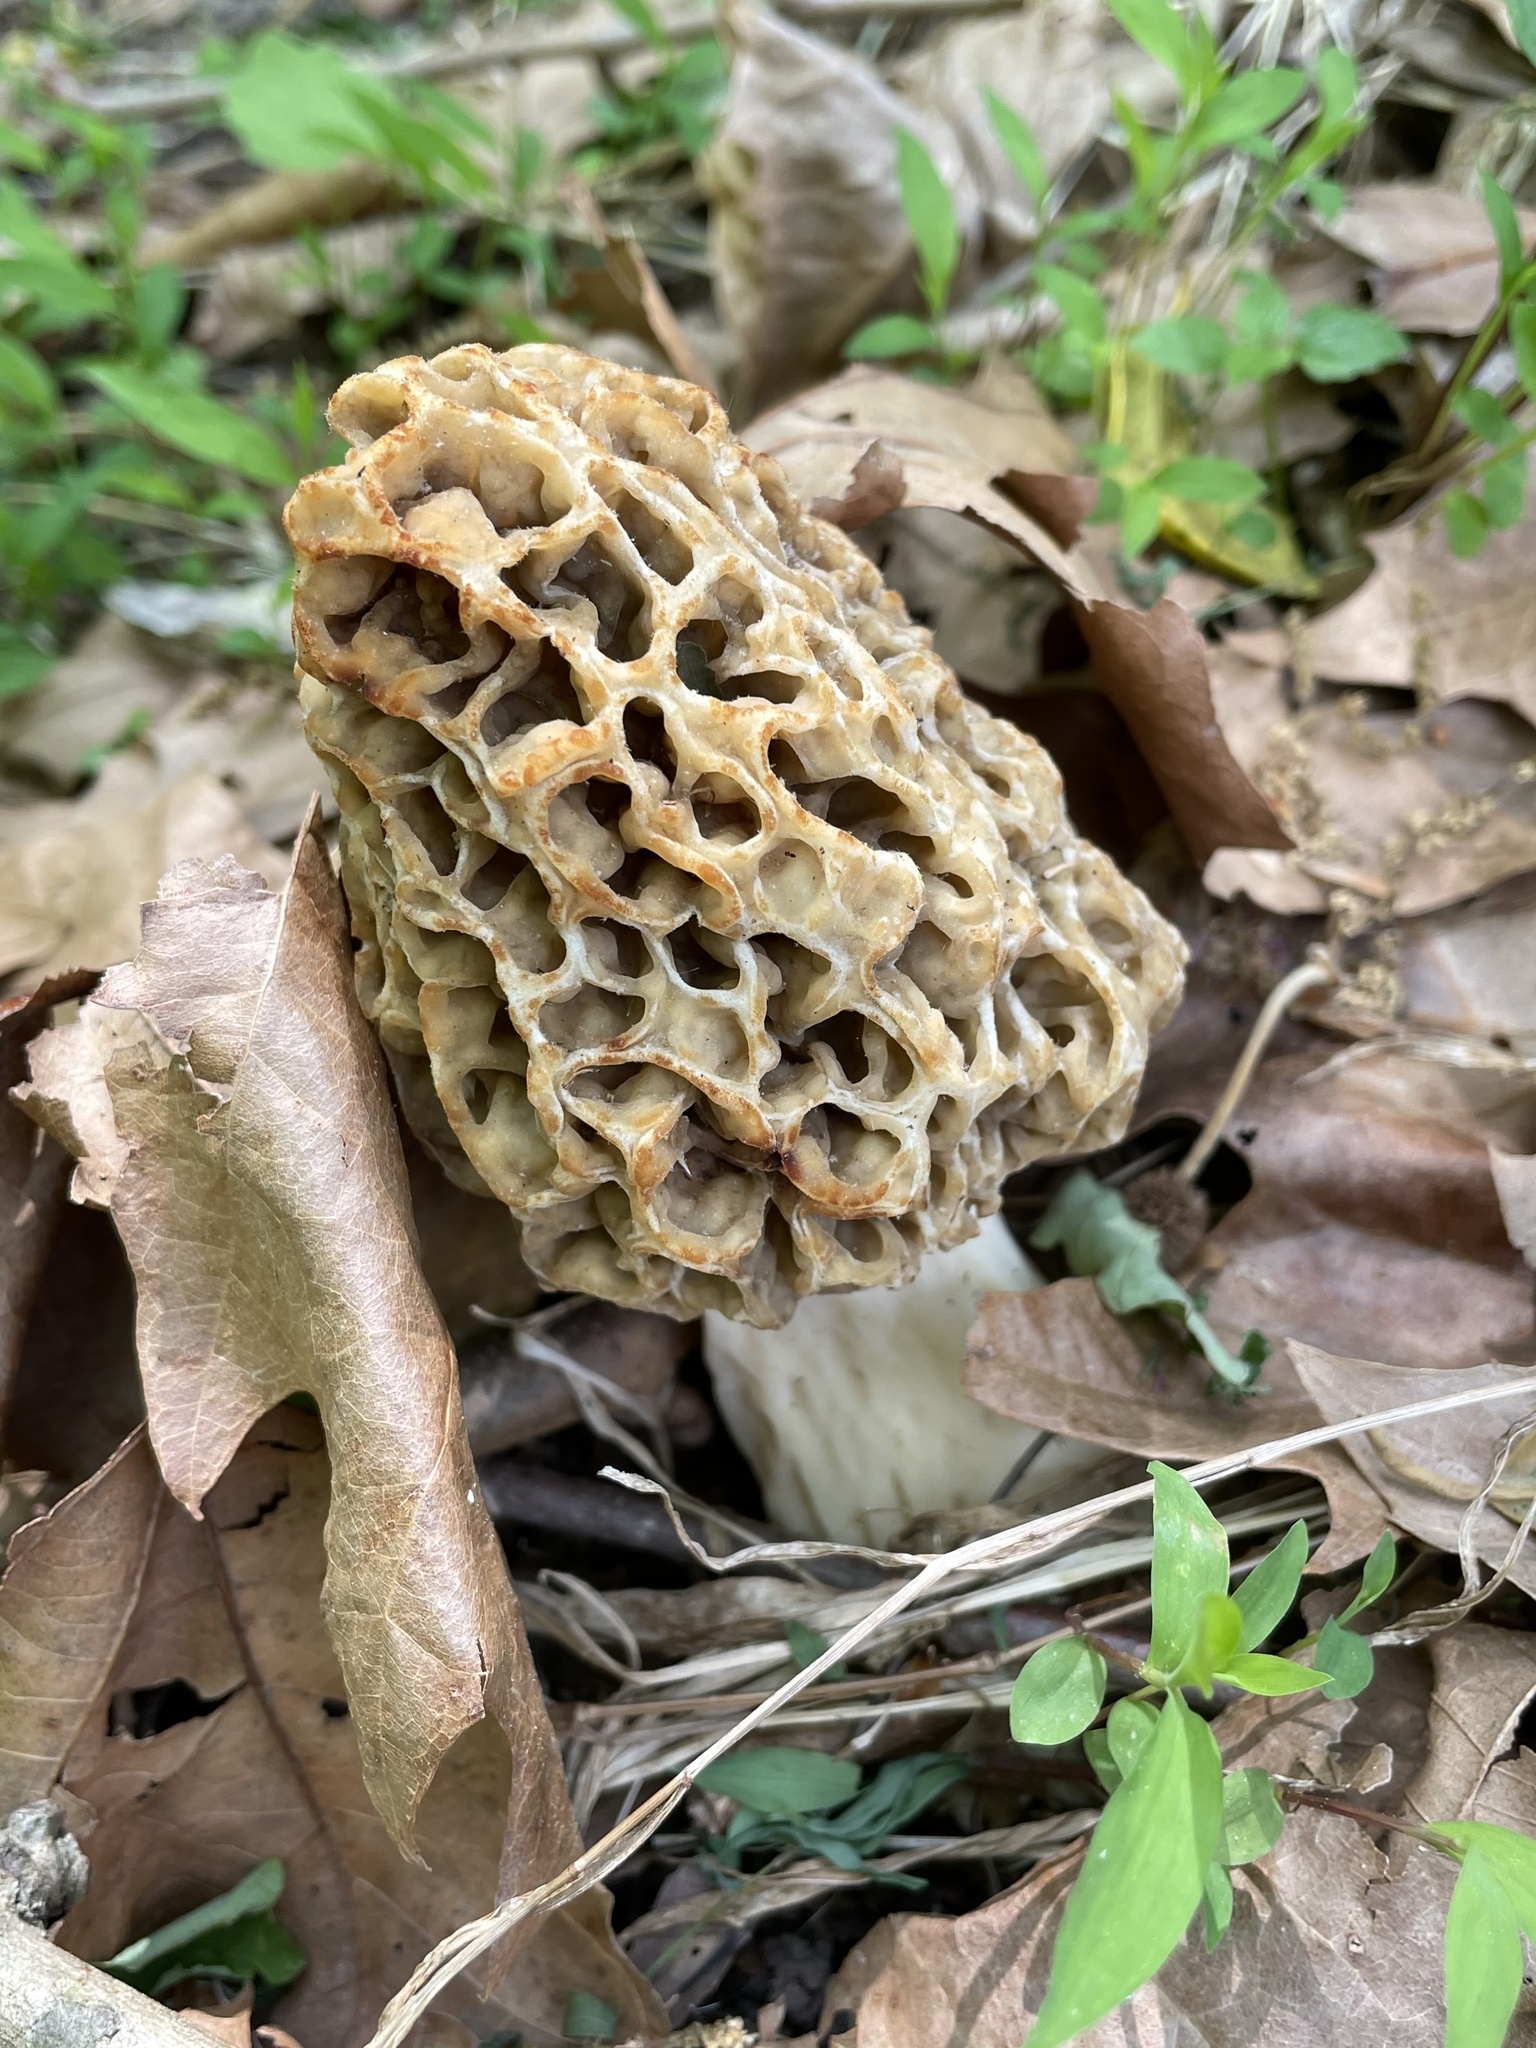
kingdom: Fungi
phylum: Ascomycota
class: Pezizomycetes
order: Pezizales
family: Morchellaceae
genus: Morchella
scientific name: Morchella americana
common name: White morel
